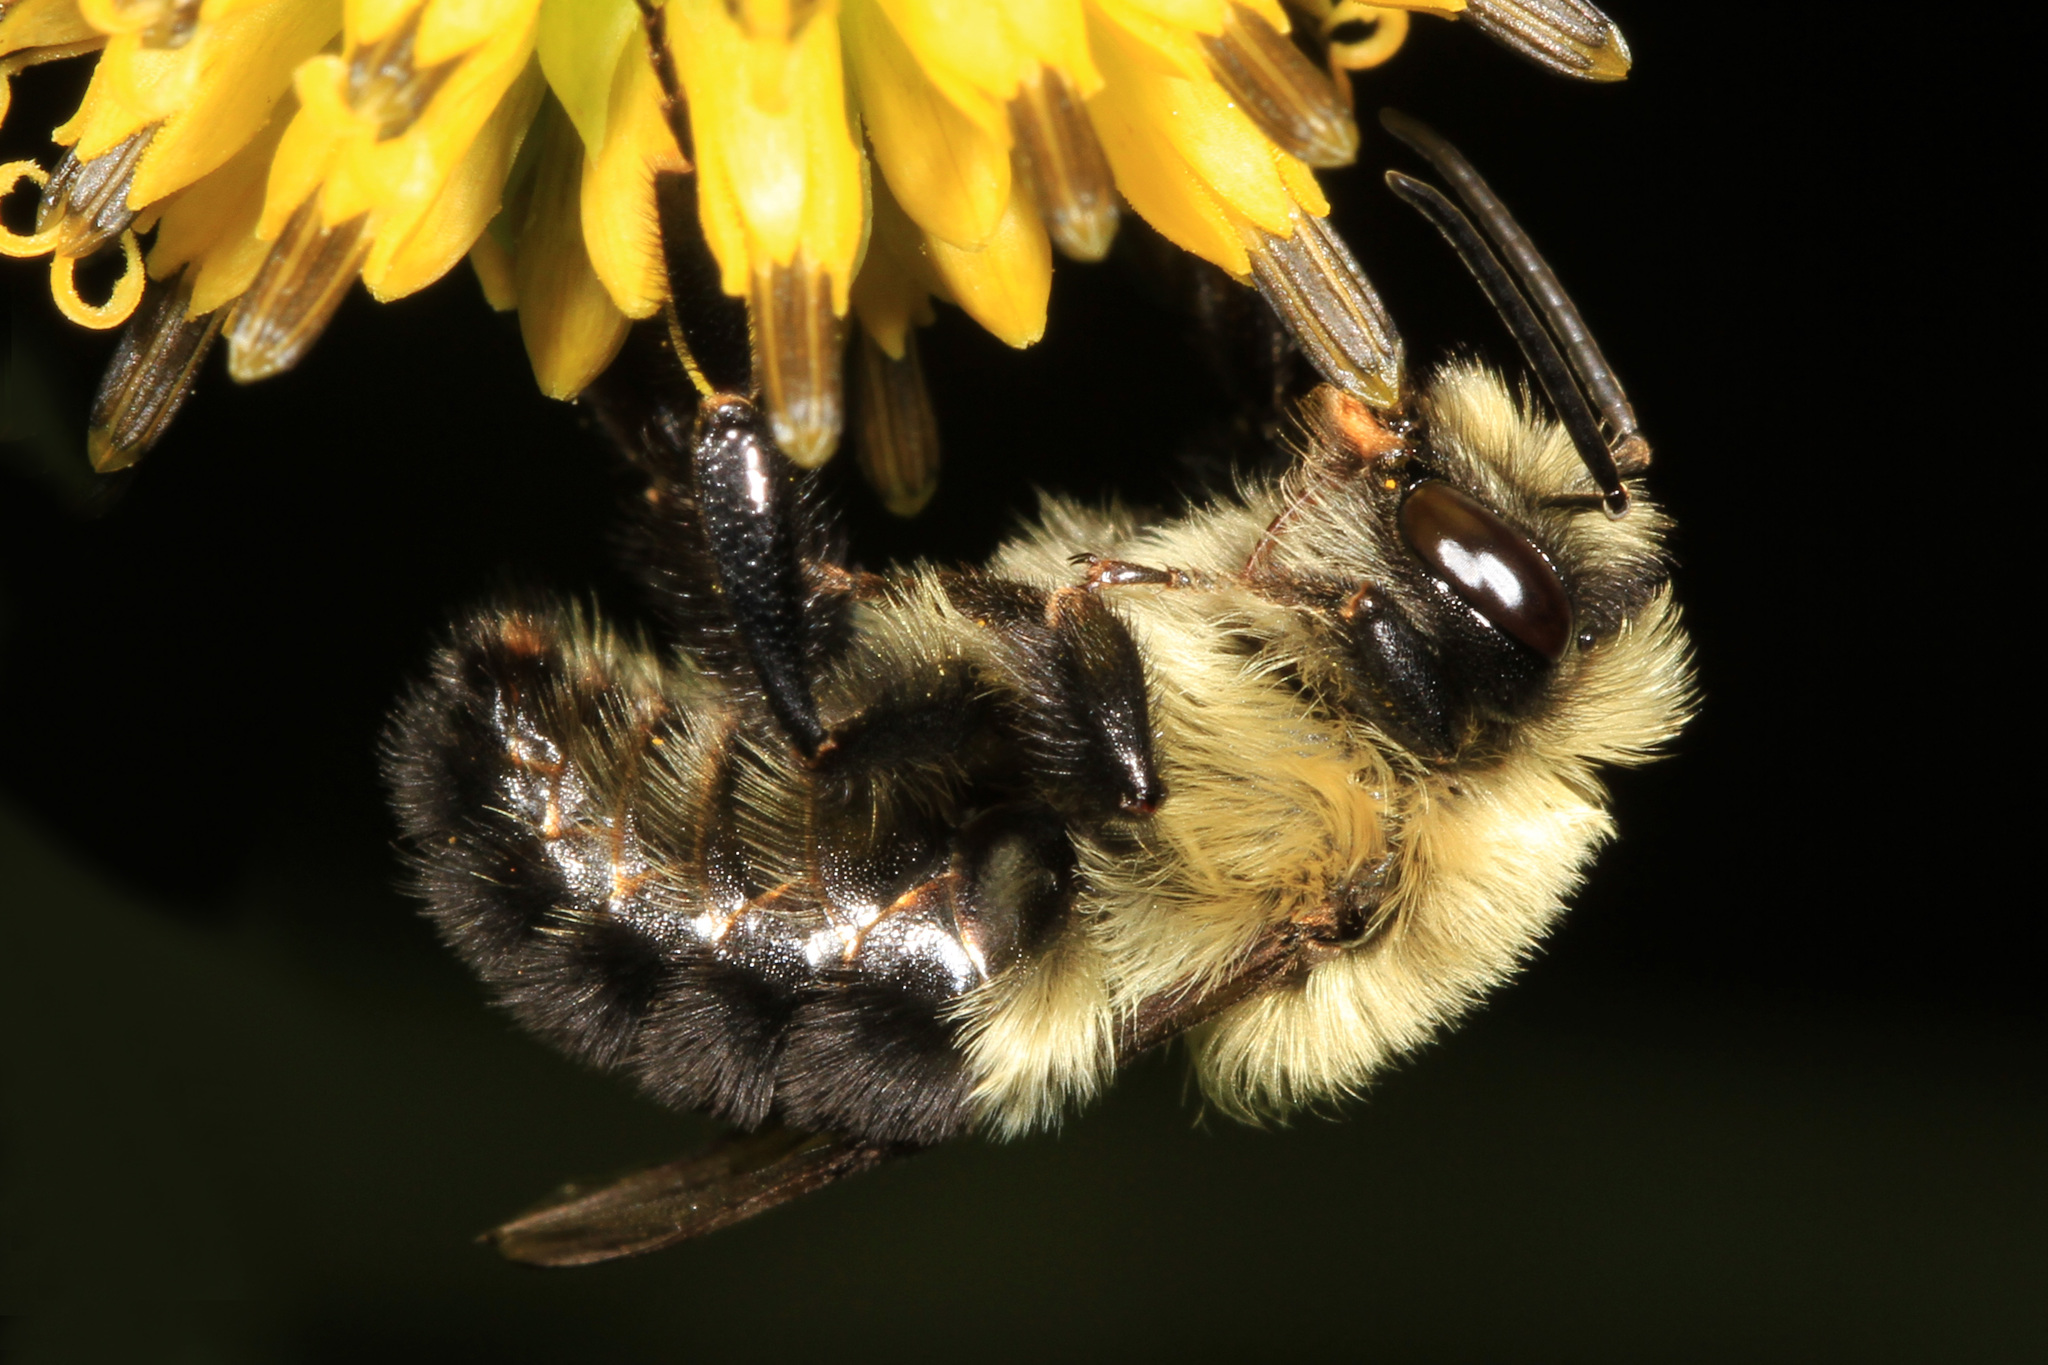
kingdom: Animalia
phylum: Arthropoda
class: Insecta
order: Hymenoptera
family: Apidae
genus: Bombus
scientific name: Bombus impatiens
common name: Common eastern bumble bee
